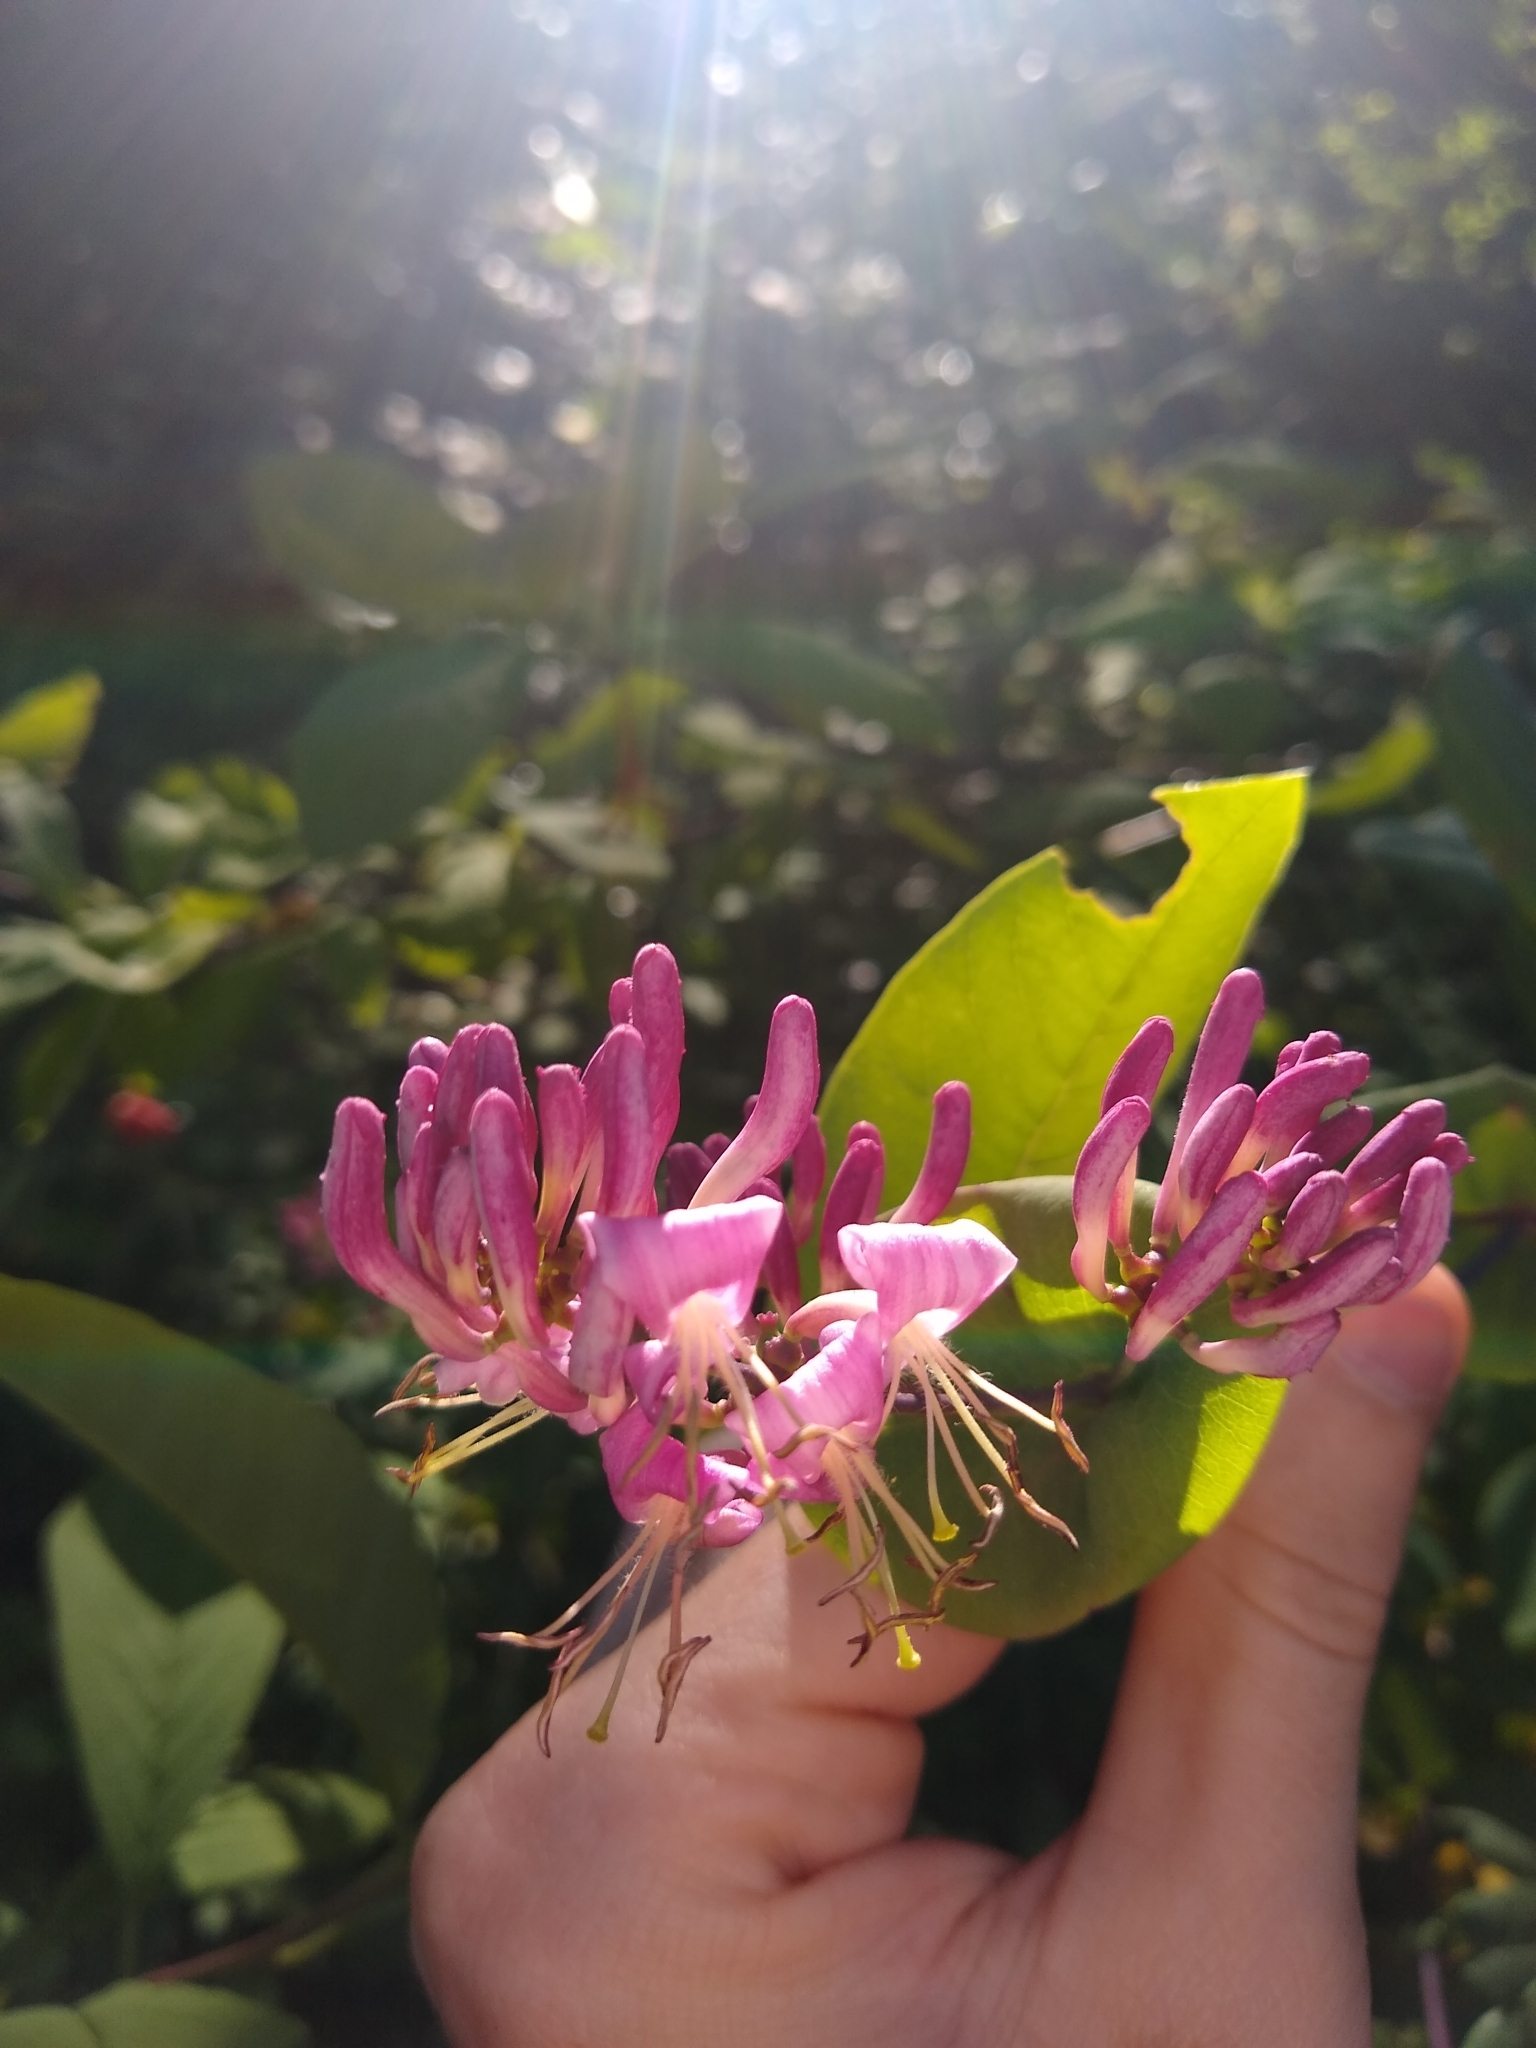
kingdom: Plantae
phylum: Tracheophyta
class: Magnoliopsida
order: Dipsacales
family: Caprifoliaceae
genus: Lonicera
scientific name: Lonicera hispidula
